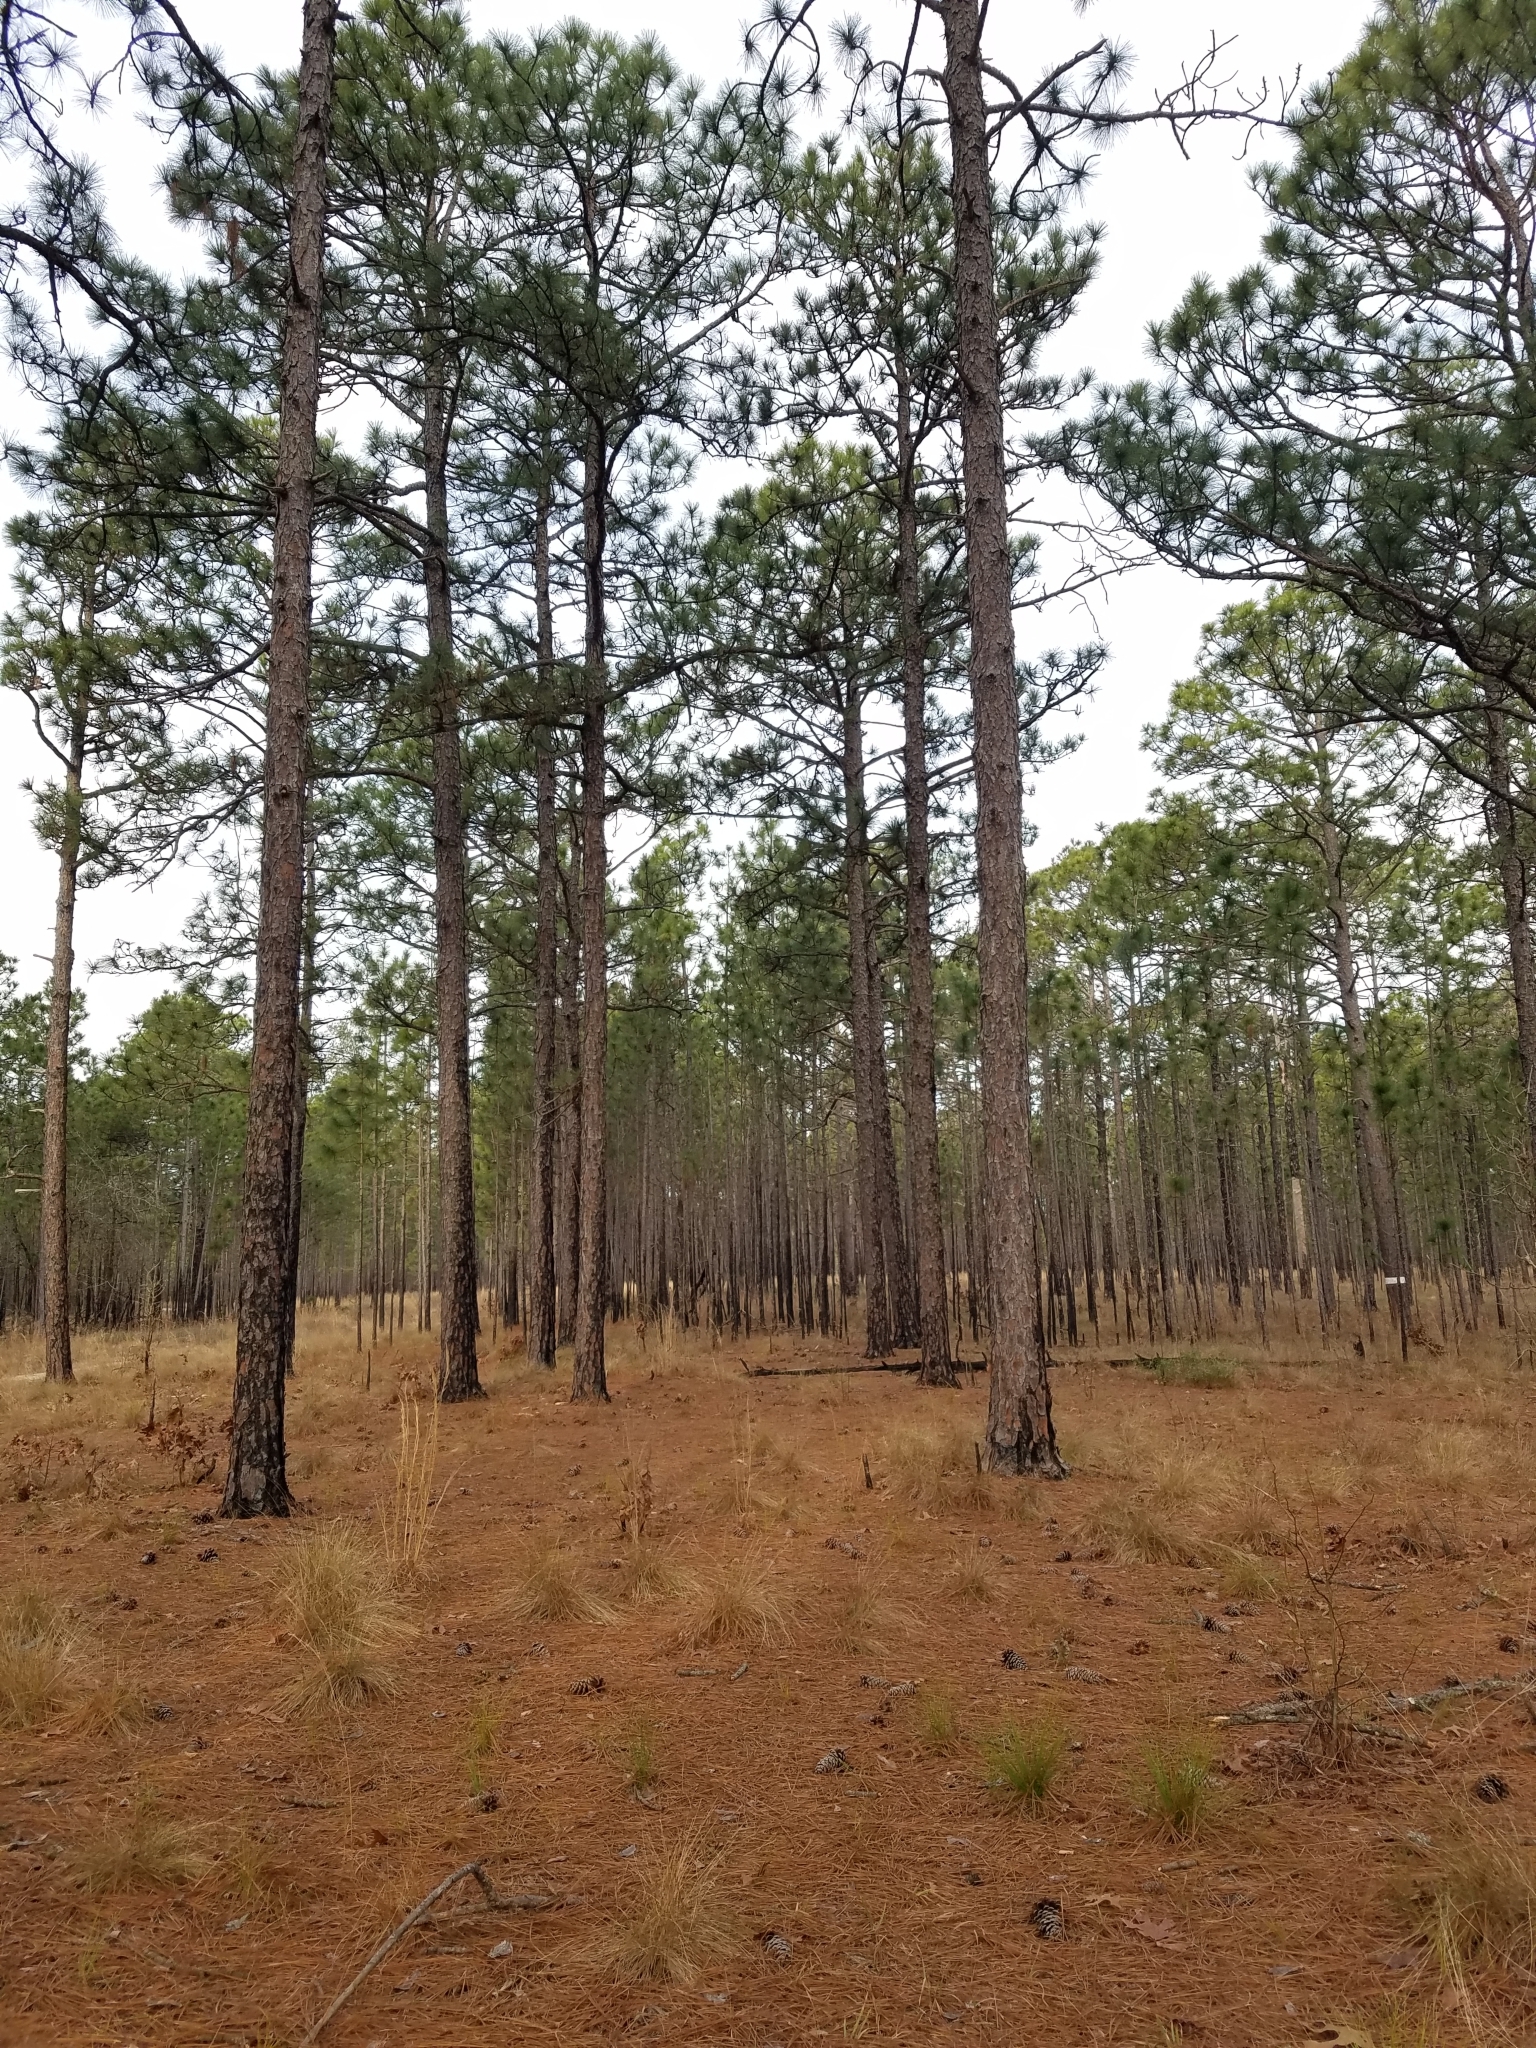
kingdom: Plantae
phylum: Tracheophyta
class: Pinopsida
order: Pinales
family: Pinaceae
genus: Pinus
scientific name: Pinus palustris
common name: Longleaf pine
